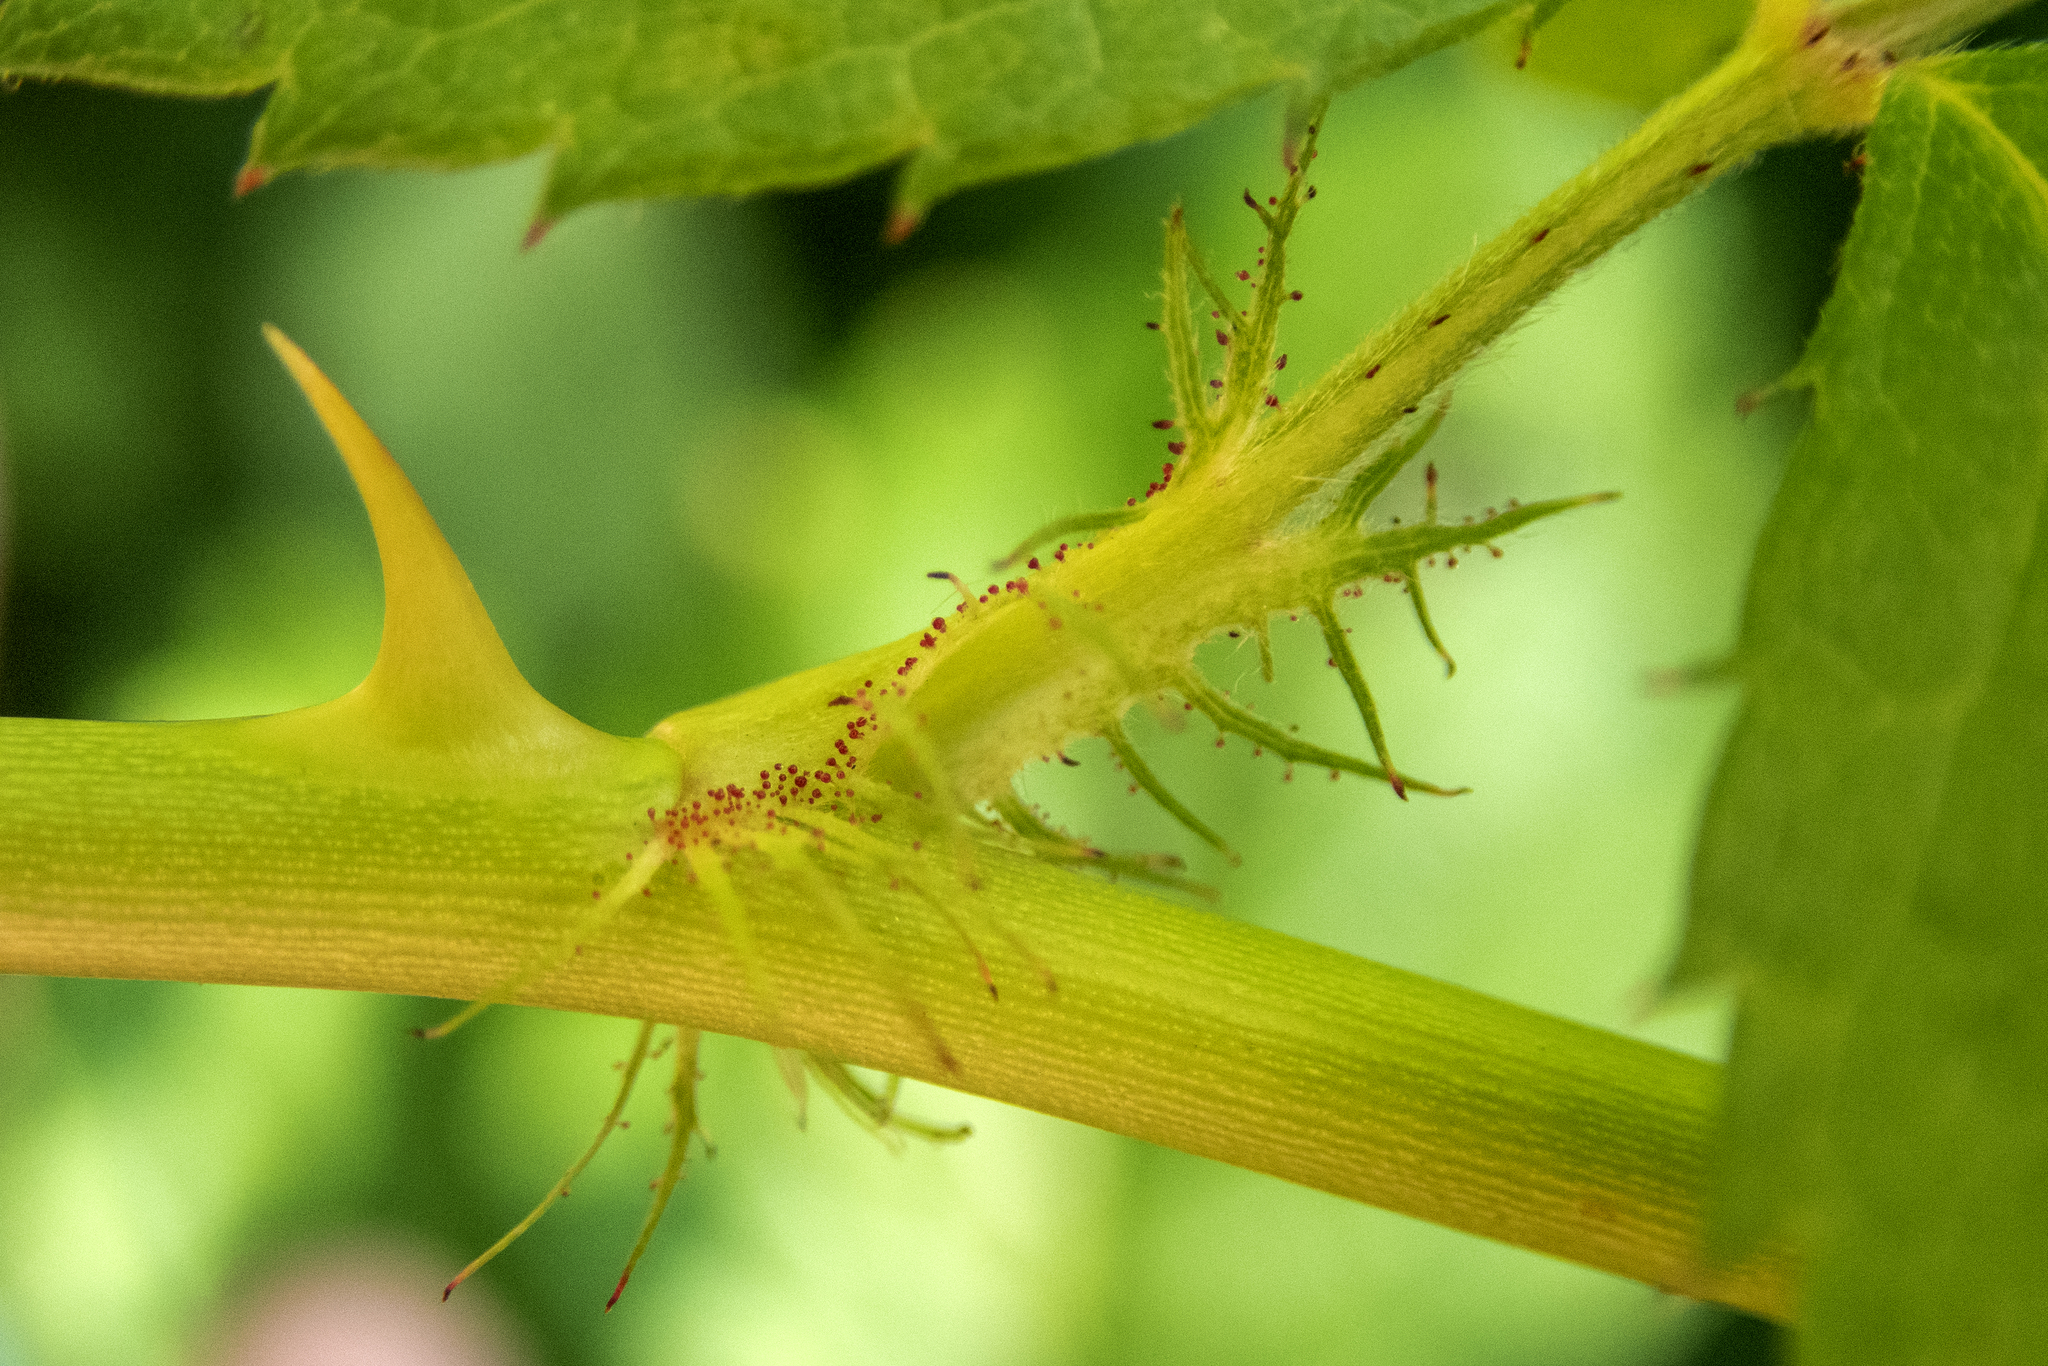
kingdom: Plantae
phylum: Tracheophyta
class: Magnoliopsida
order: Rosales
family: Rosaceae
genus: Rosa
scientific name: Rosa multiflora
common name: Multiflora rose
